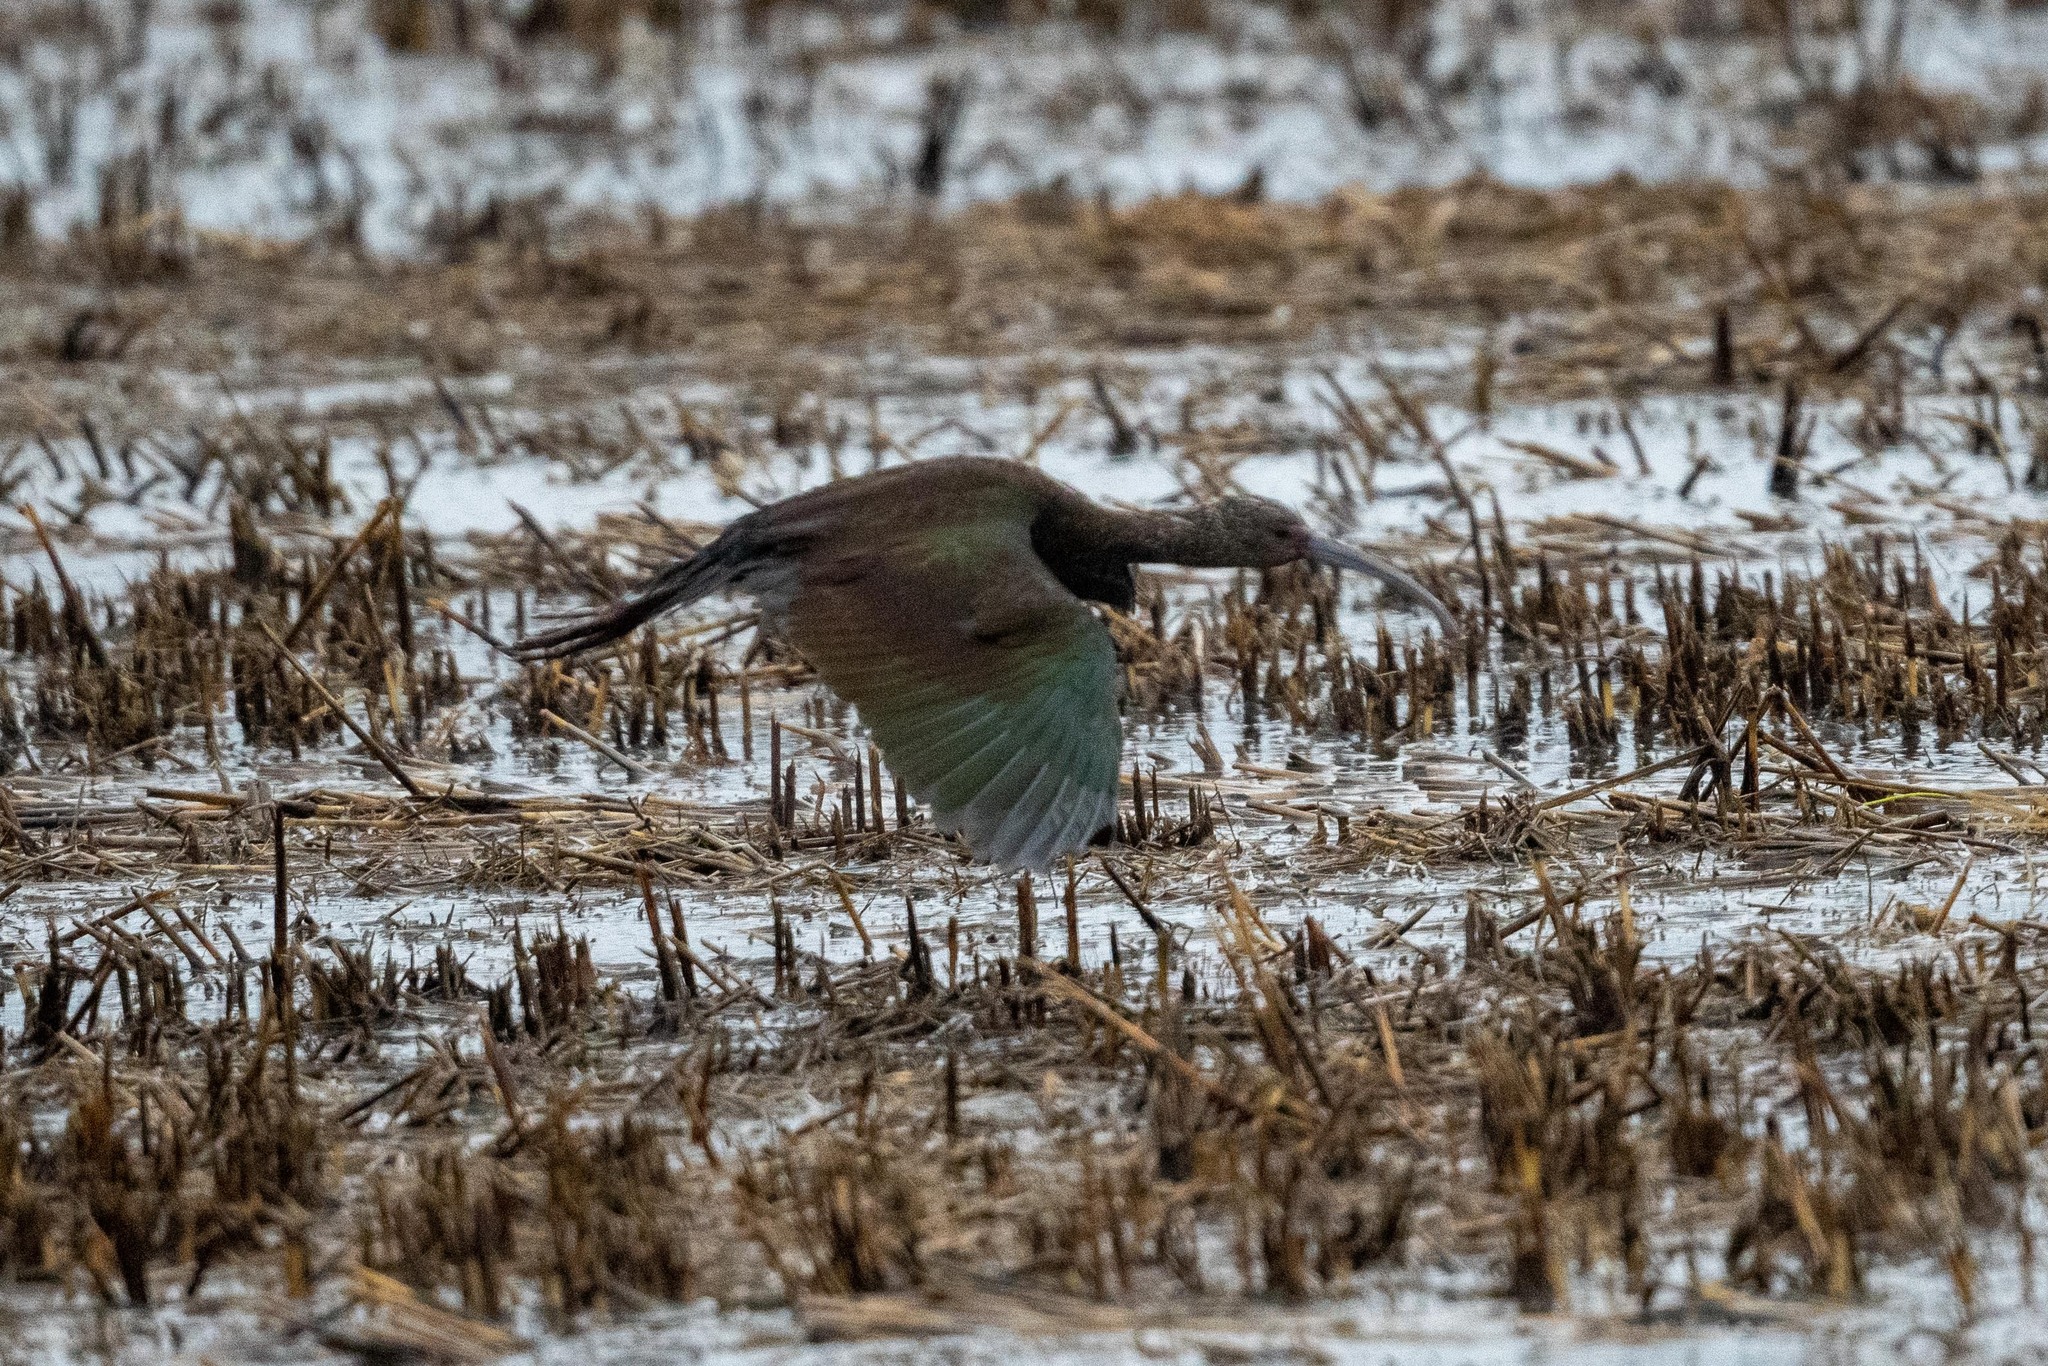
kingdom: Animalia
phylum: Chordata
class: Aves
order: Pelecaniformes
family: Threskiornithidae
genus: Plegadis
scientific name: Plegadis chihi
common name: White-faced ibis
